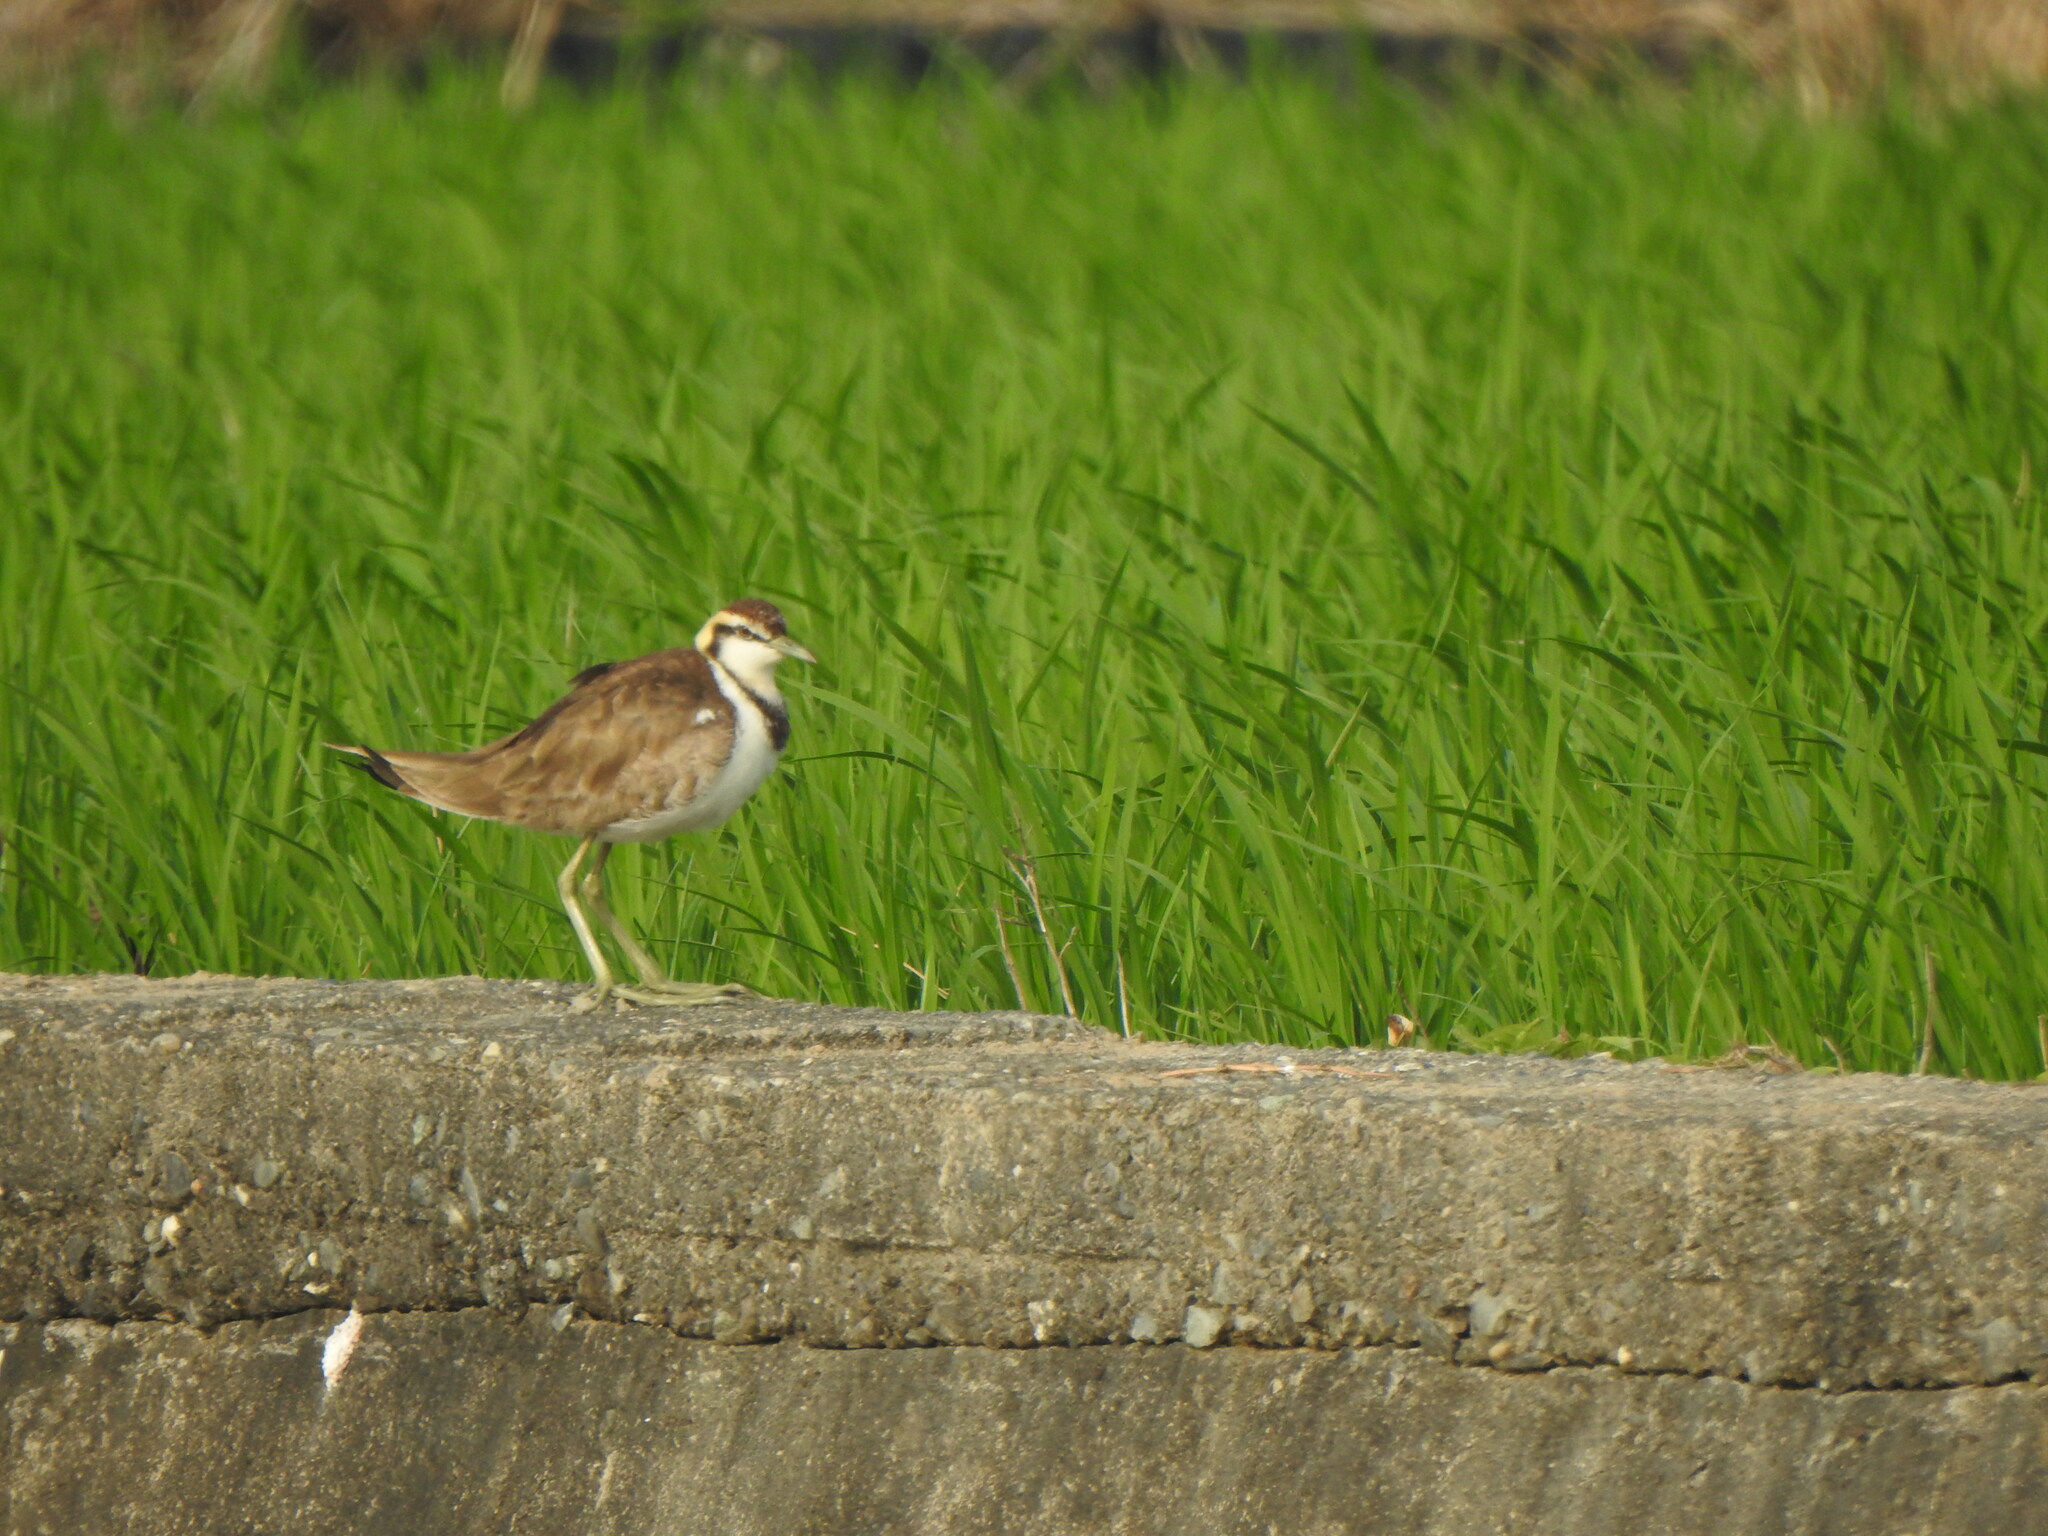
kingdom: Animalia
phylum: Chordata
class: Aves
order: Charadriiformes
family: Jacanidae
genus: Hydrophasianus
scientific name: Hydrophasianus chirurgus
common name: Pheasant-tailed jacana
